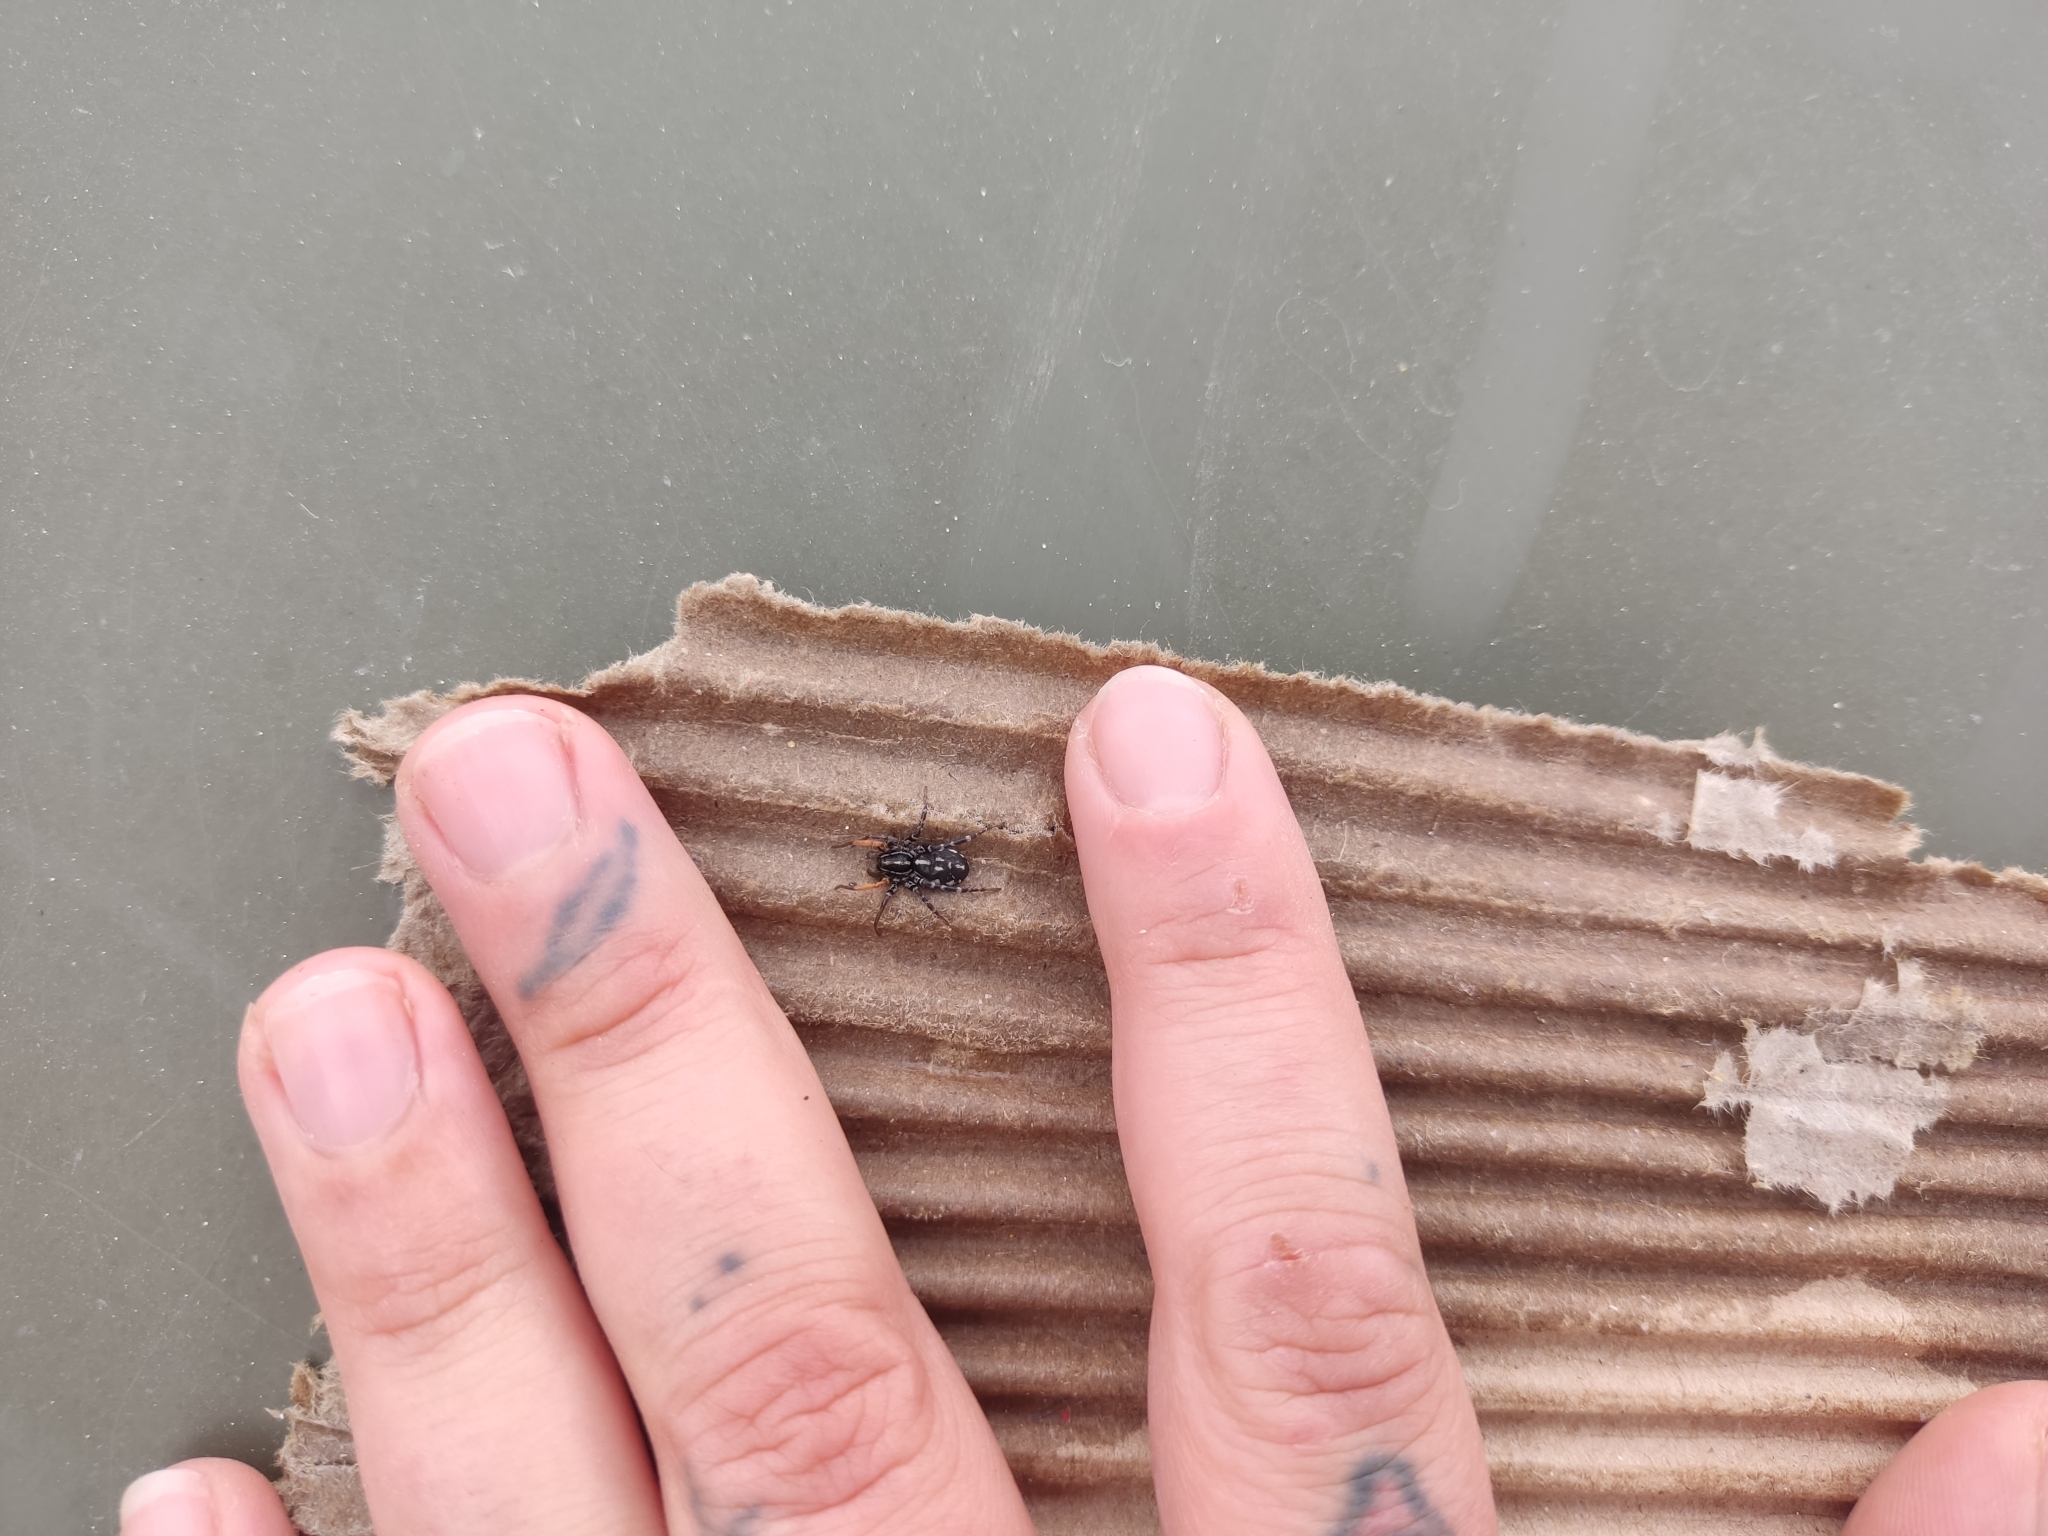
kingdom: Animalia
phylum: Arthropoda
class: Arachnida
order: Araneae
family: Corinnidae
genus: Nyssus
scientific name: Nyssus coloripes
